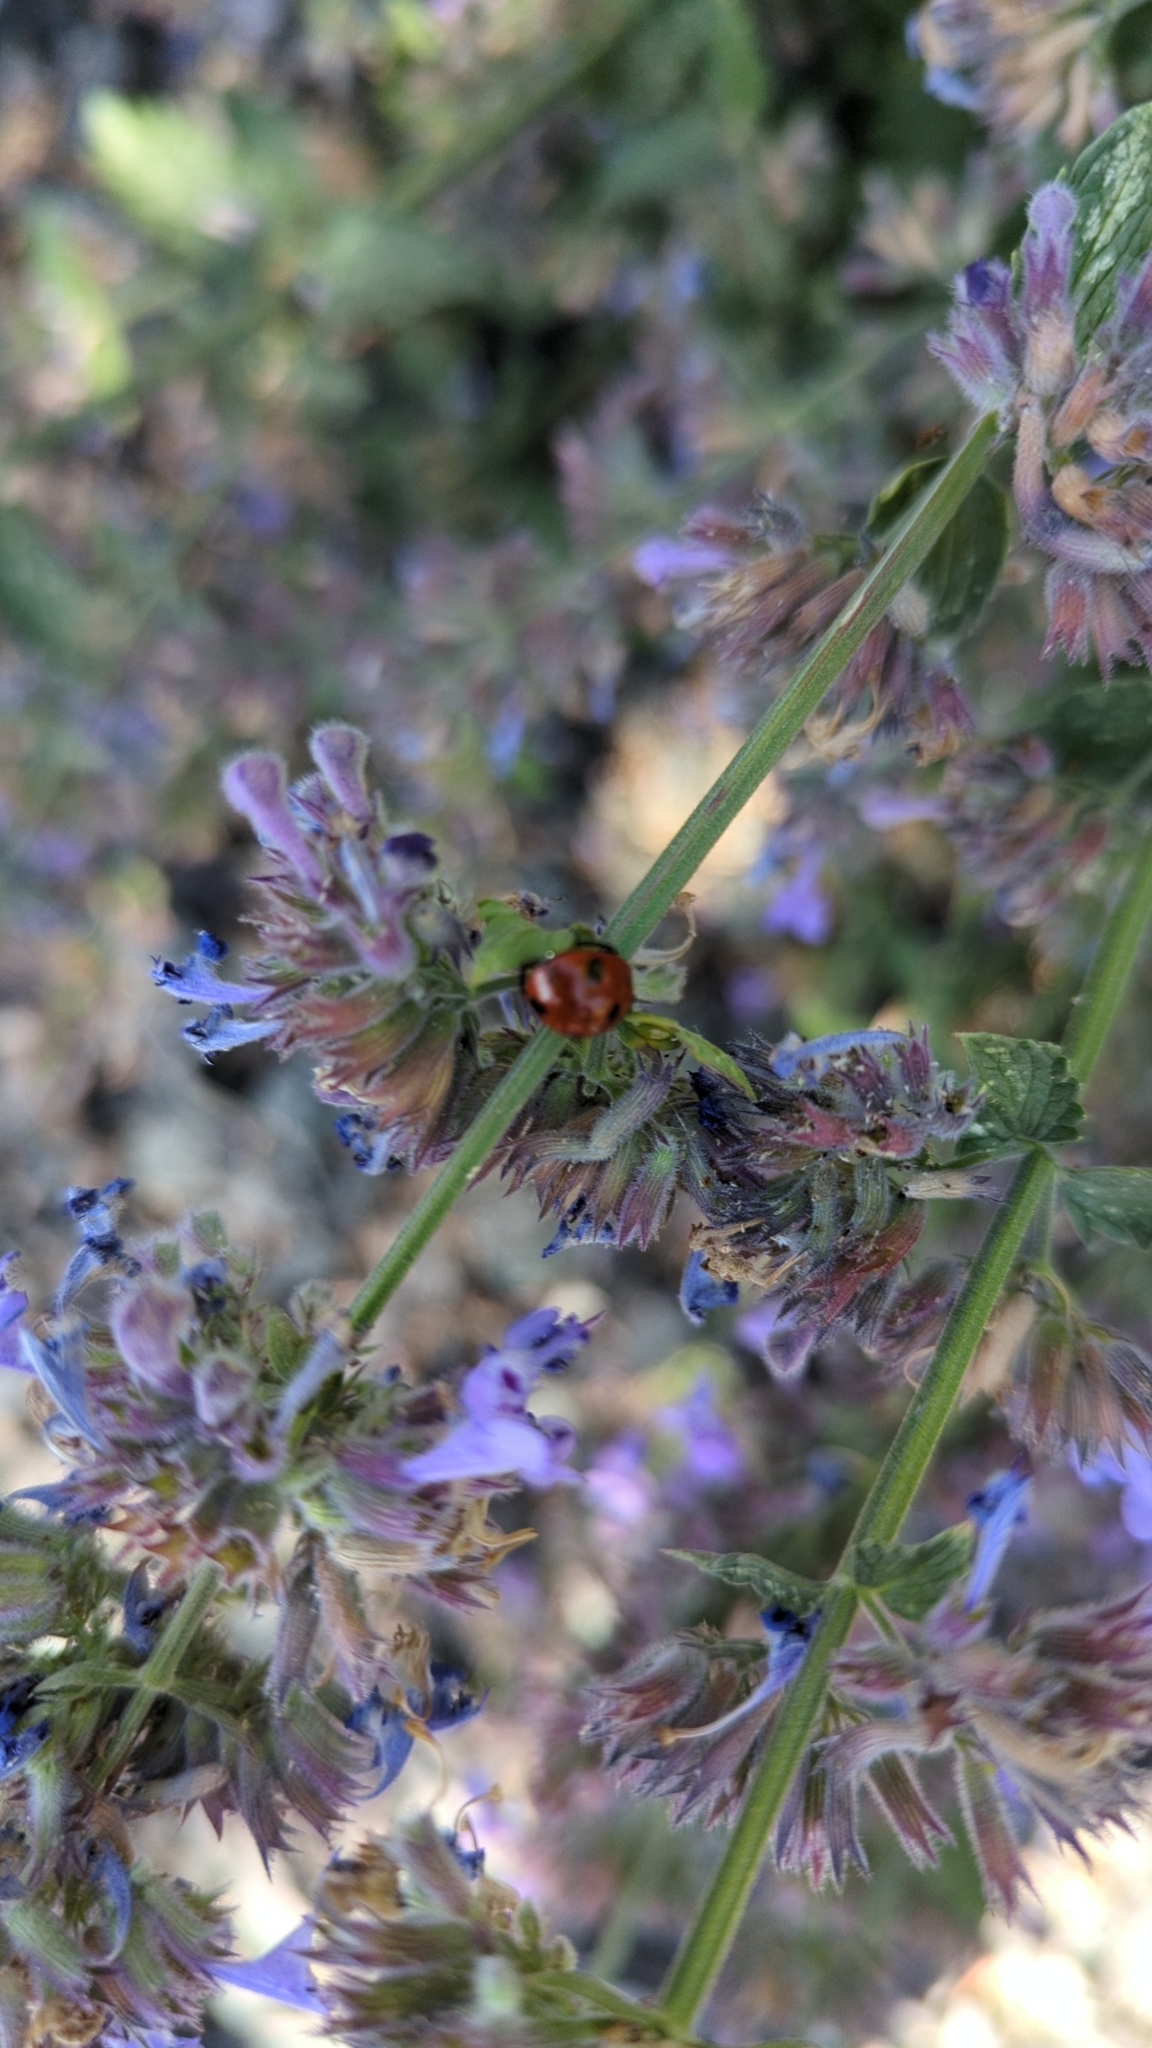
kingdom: Animalia
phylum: Arthropoda
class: Insecta
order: Coleoptera
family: Coccinellidae
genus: Coccinella
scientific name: Coccinella septempunctata
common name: Sevenspotted lady beetle
